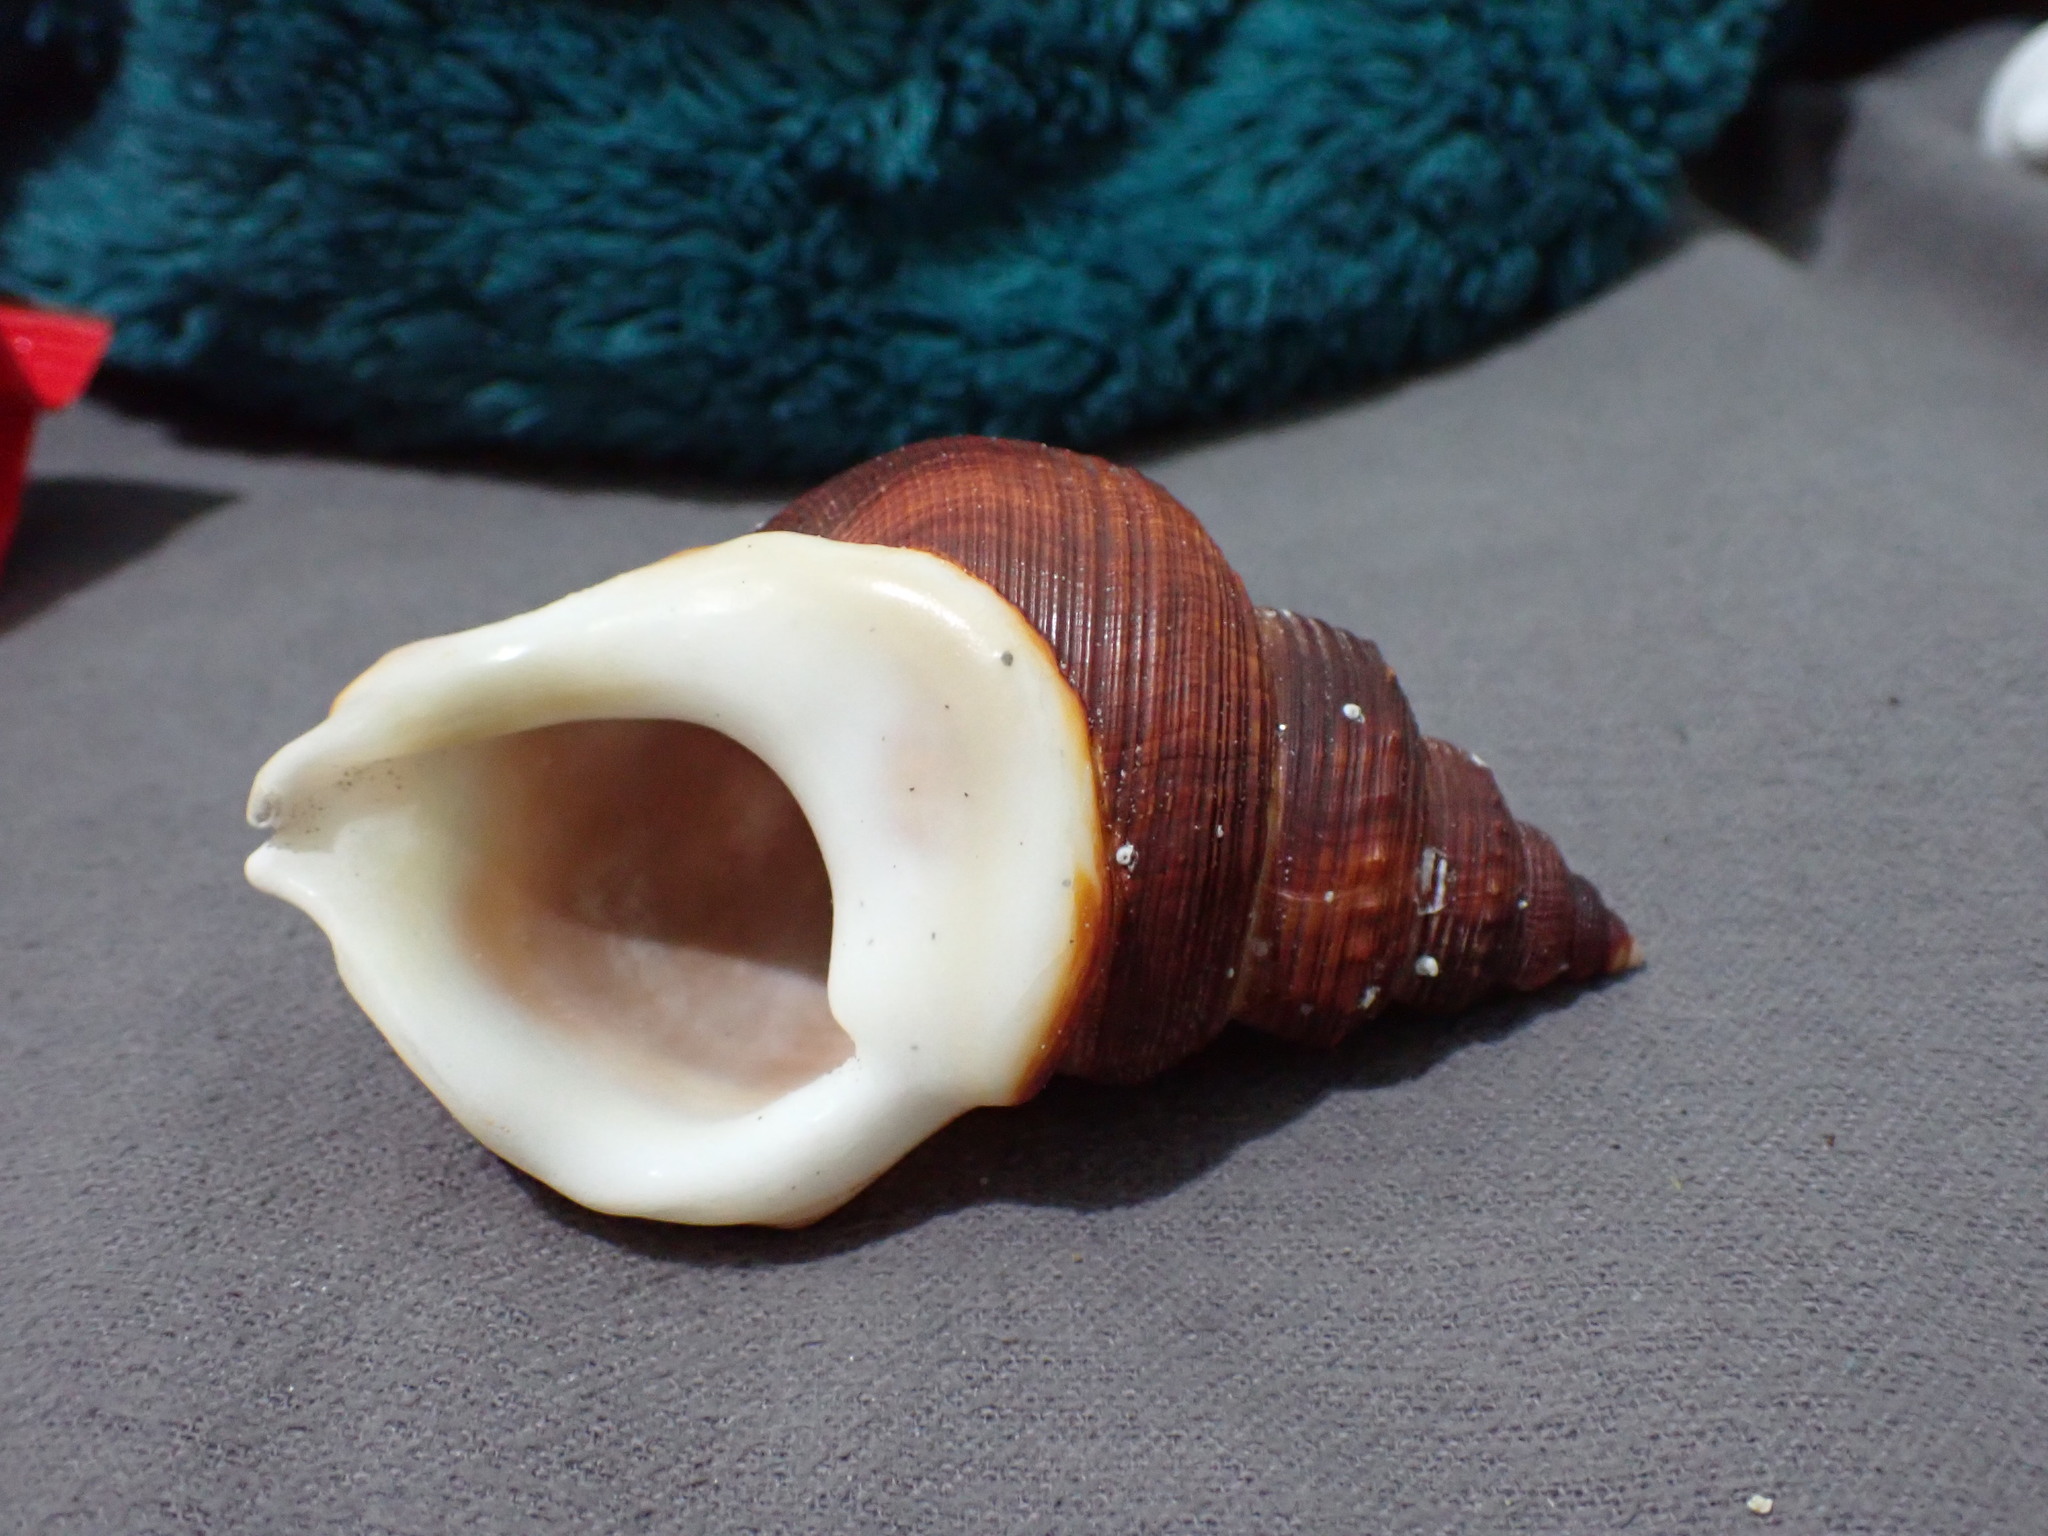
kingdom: Animalia
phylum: Mollusca
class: Gastropoda
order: Littorinimorpha
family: Struthiolariidae
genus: Struthiolaria
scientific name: Struthiolaria papulosa
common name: Large ostrich foot
